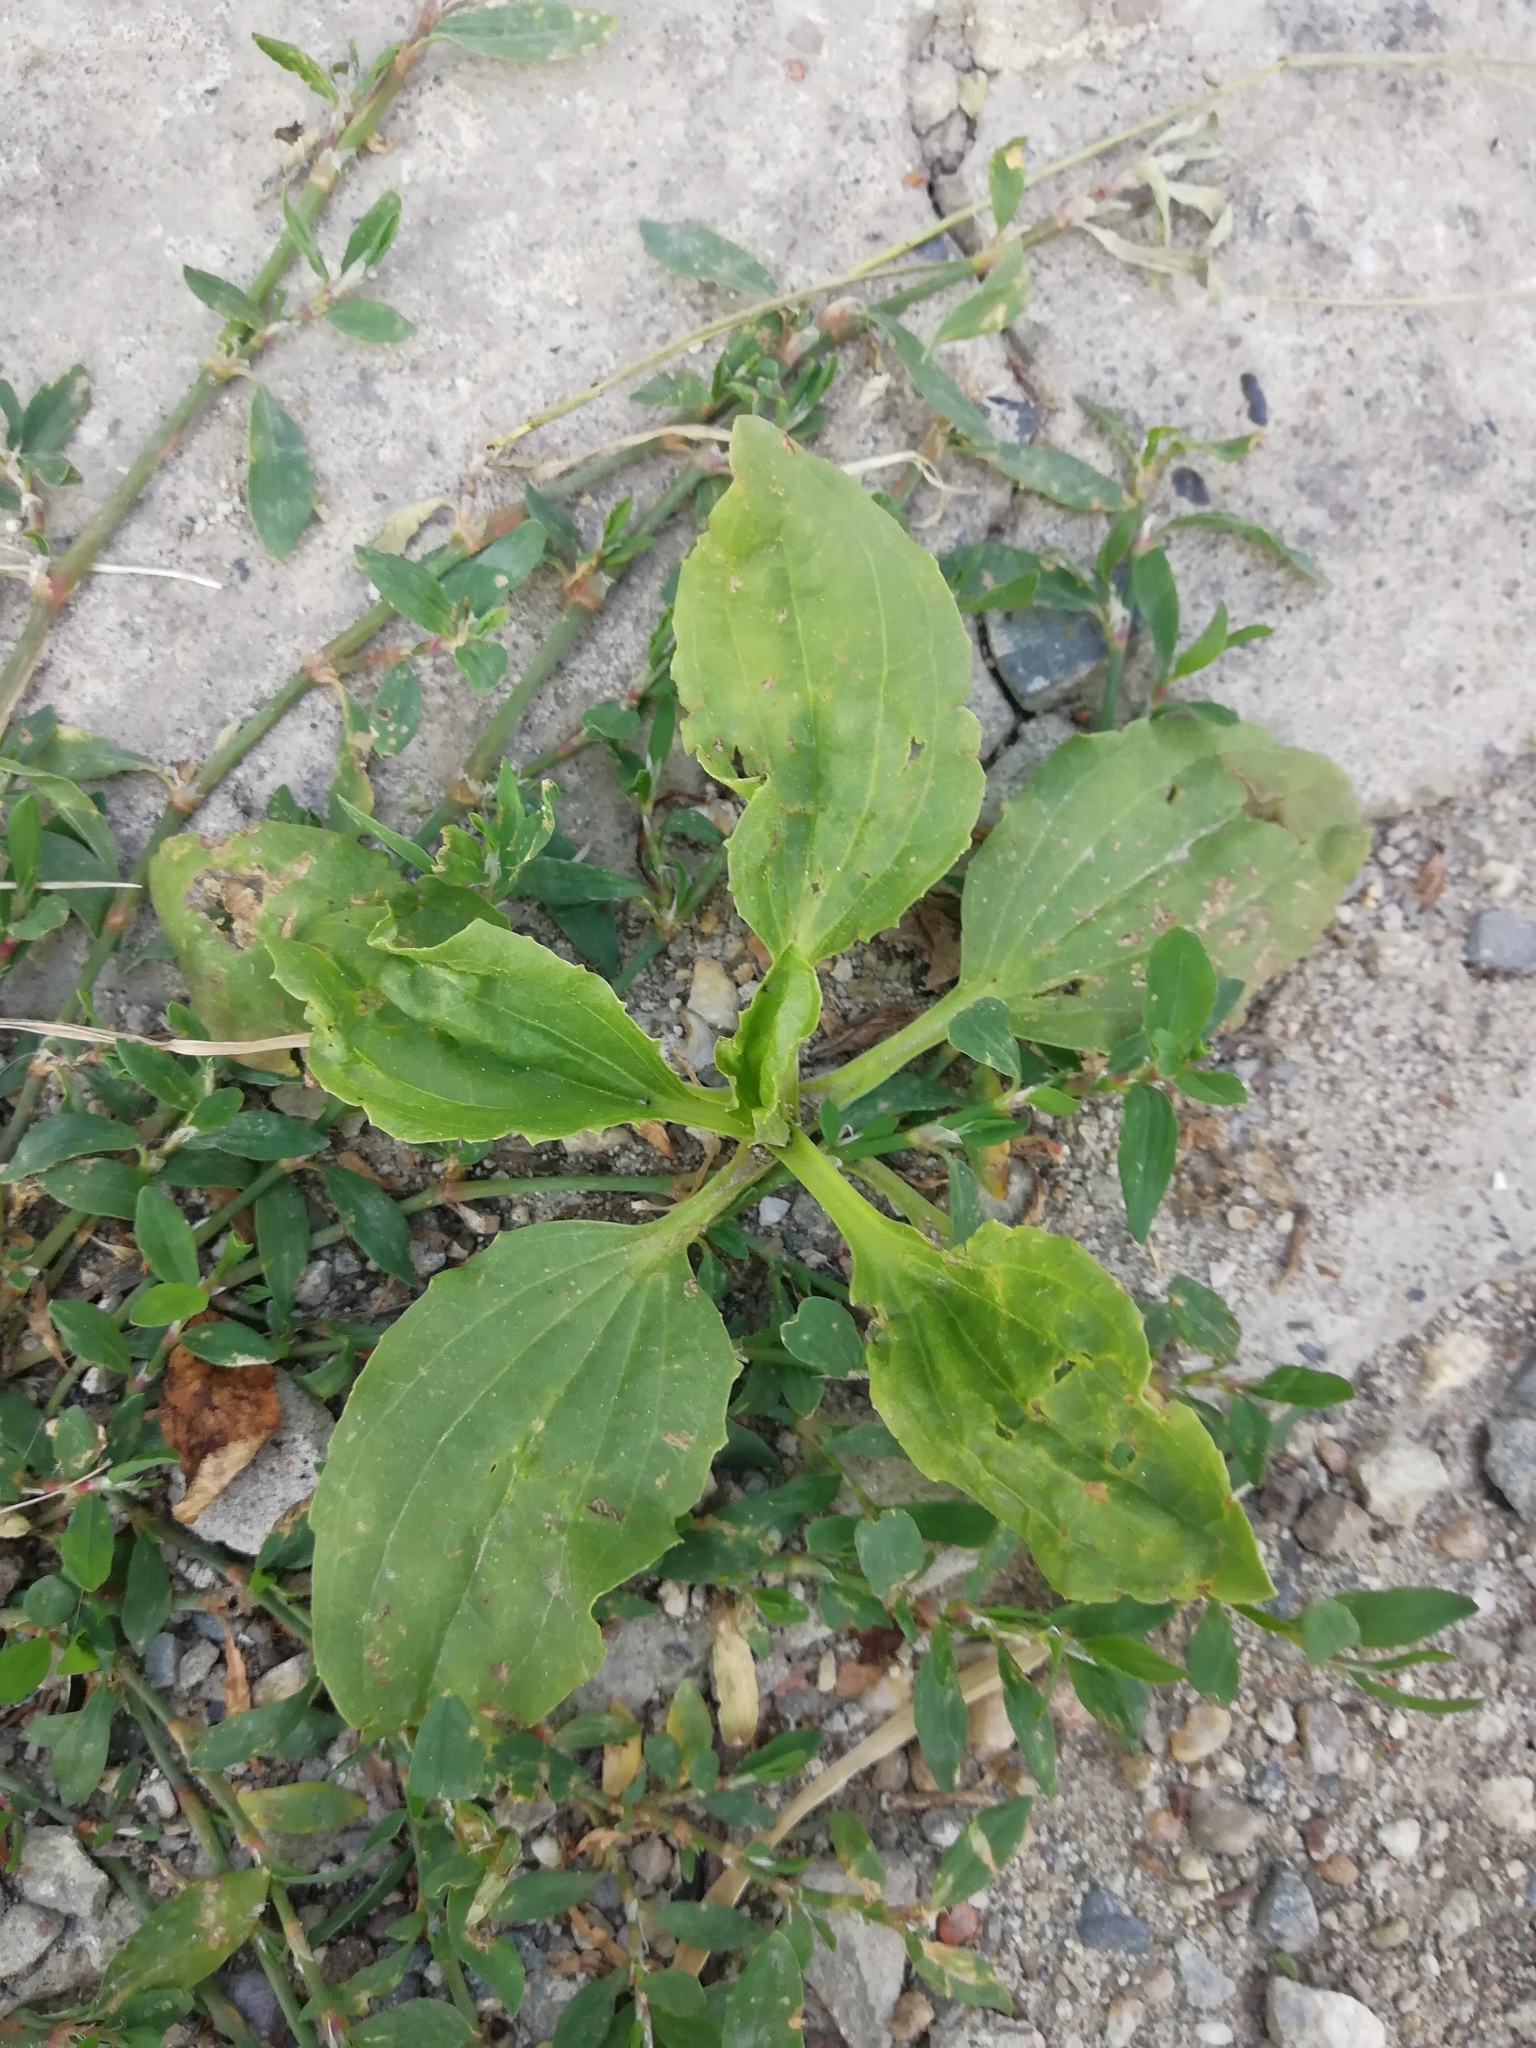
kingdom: Plantae
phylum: Tracheophyta
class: Magnoliopsida
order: Lamiales
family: Plantaginaceae
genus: Plantago
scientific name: Plantago major
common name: Common plantain
